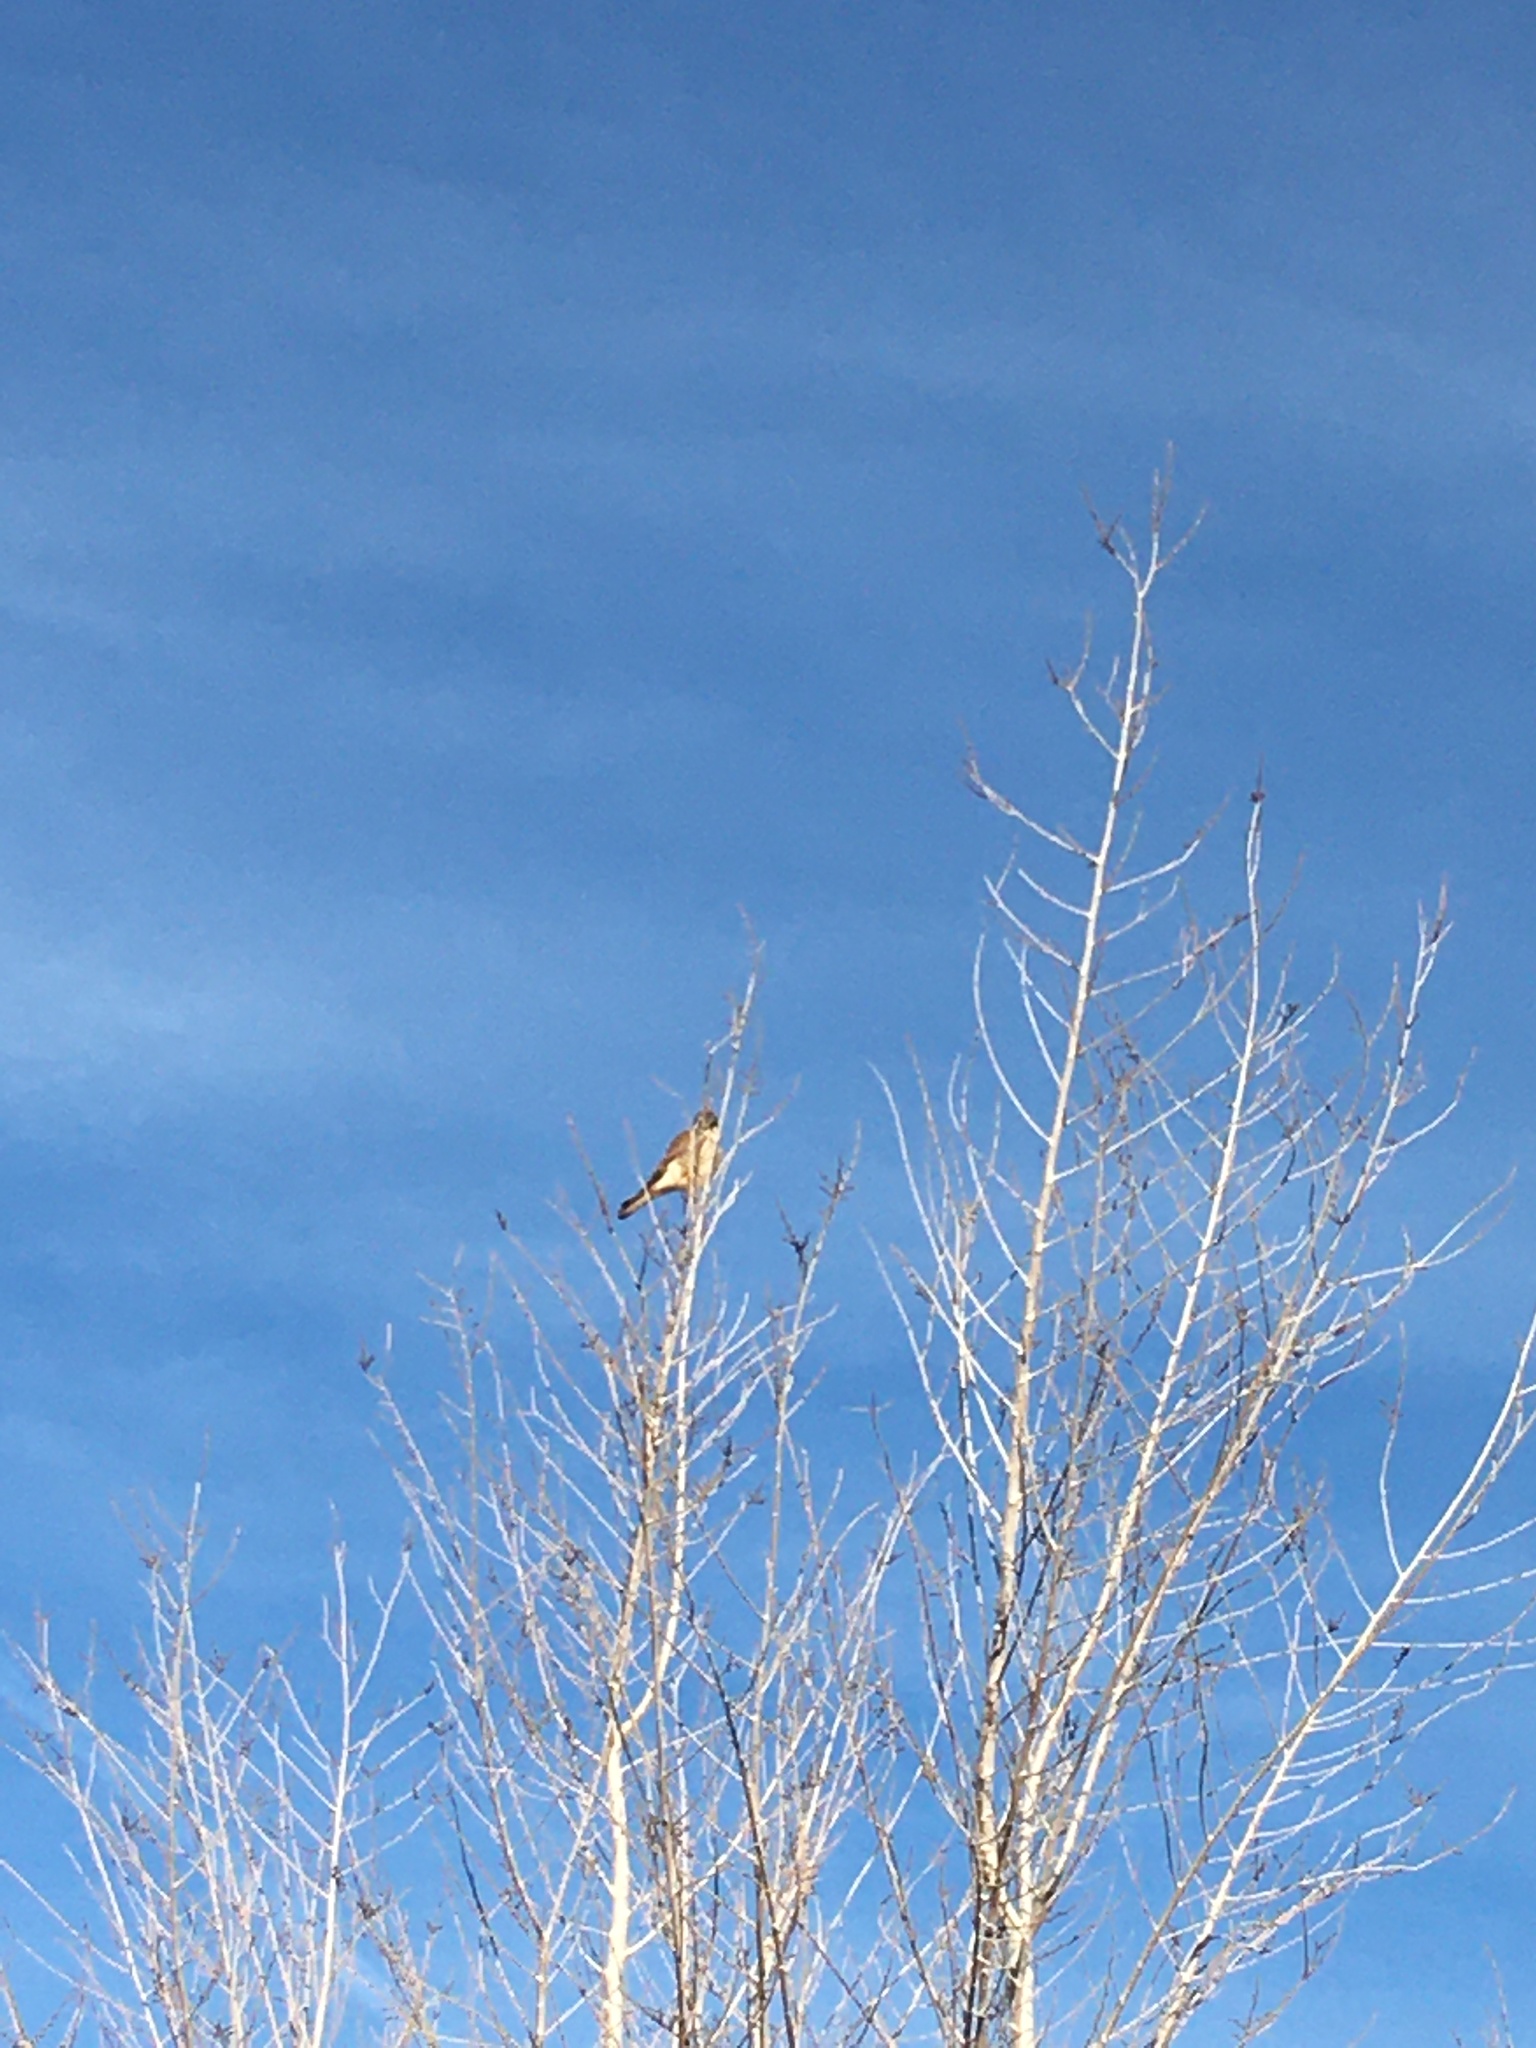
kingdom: Animalia
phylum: Chordata
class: Aves
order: Falconiformes
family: Falconidae
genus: Falco
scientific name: Falco sparverius
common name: American kestrel
